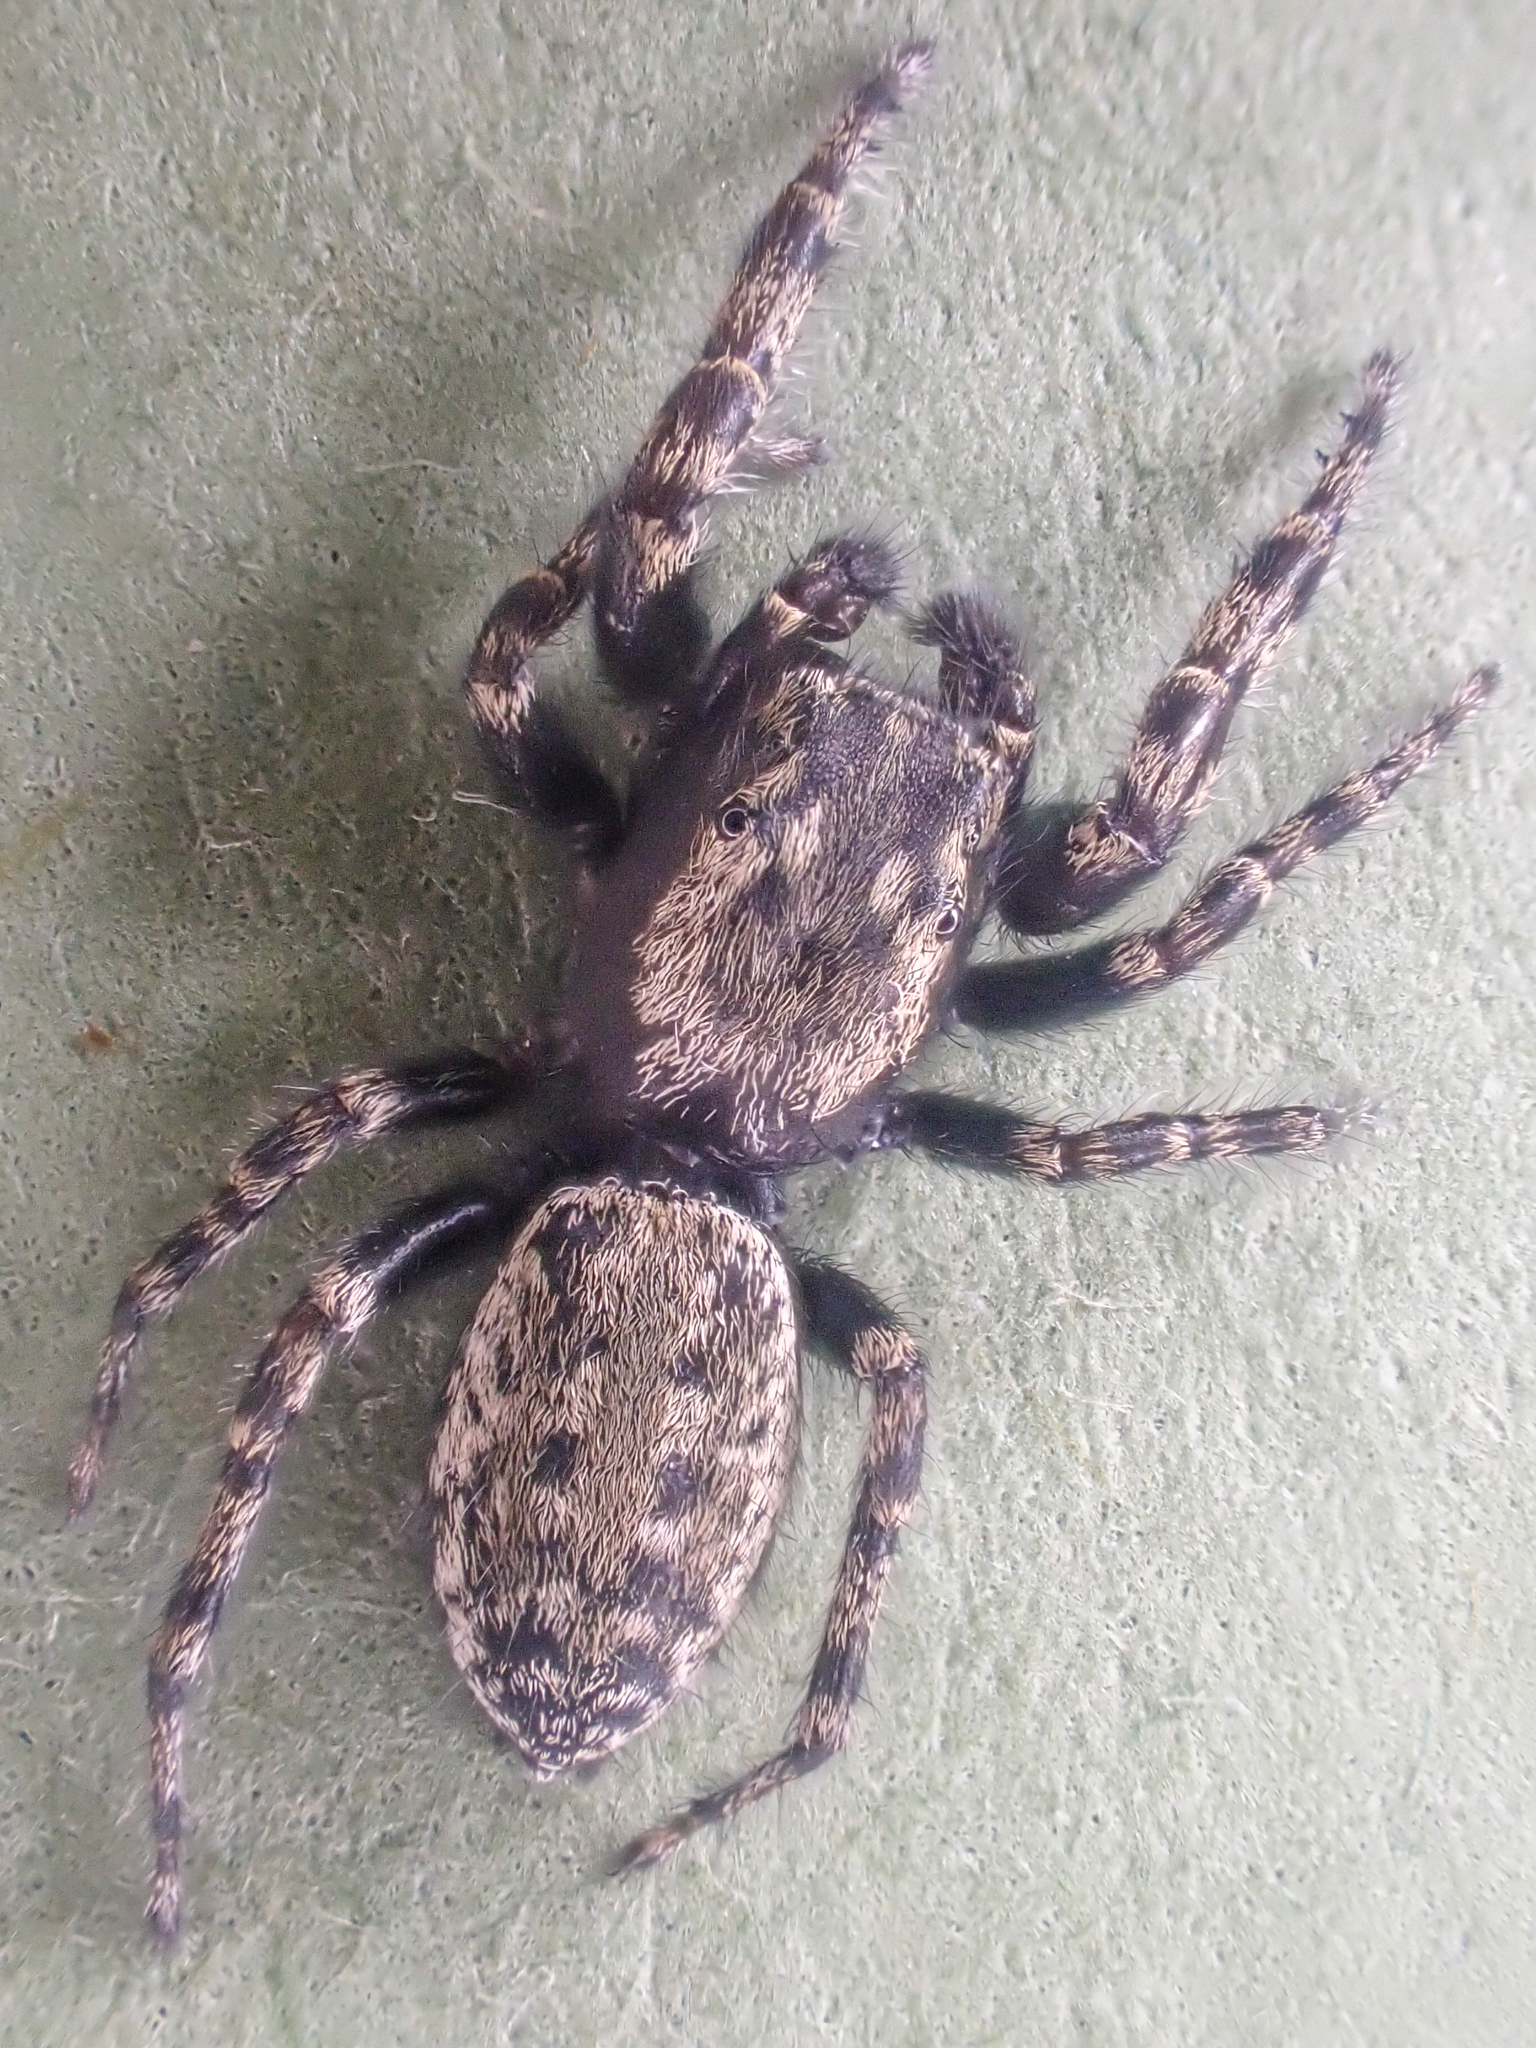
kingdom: Animalia
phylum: Arthropoda
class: Arachnida
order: Araneae
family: Salticidae
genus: Terralonus
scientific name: Terralonus mylothrus
